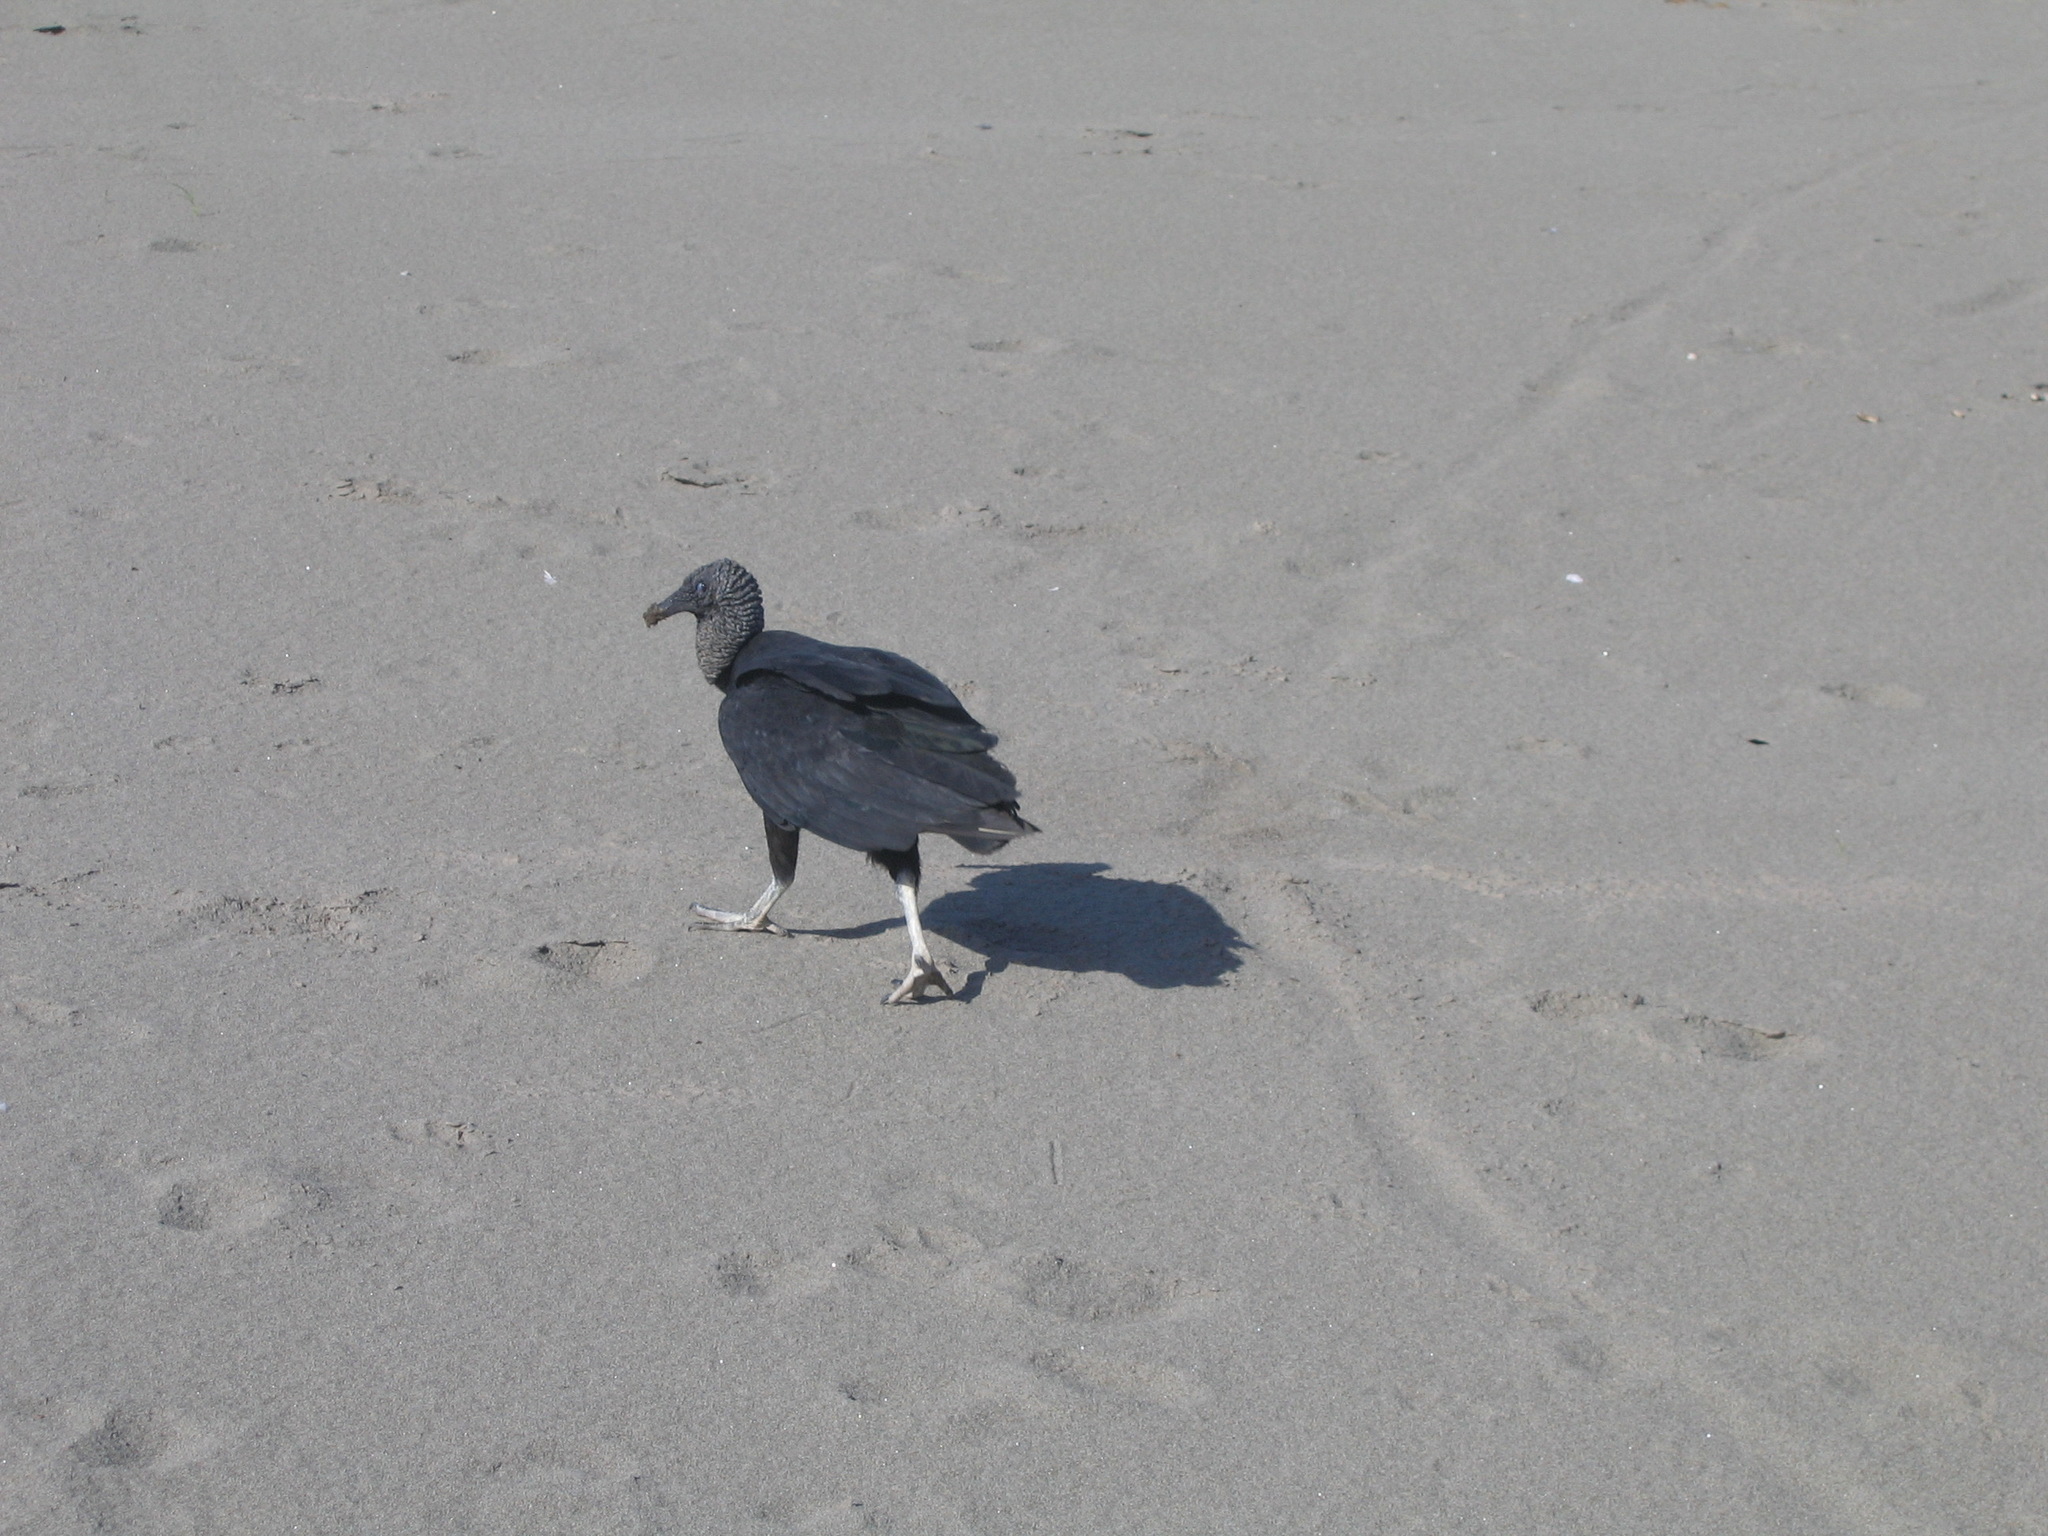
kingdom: Animalia
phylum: Chordata
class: Aves
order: Accipitriformes
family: Cathartidae
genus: Coragyps
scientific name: Coragyps atratus
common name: Black vulture
